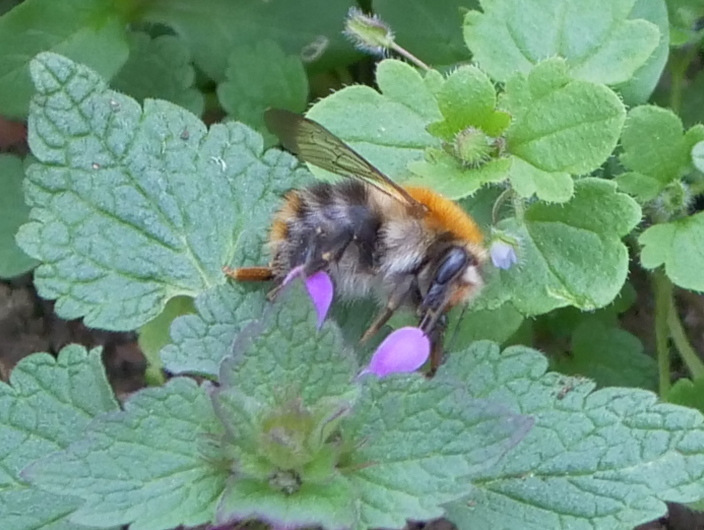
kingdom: Animalia
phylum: Arthropoda
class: Insecta
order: Hymenoptera
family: Apidae
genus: Bombus
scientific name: Bombus pascuorum
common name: Common carder bee
